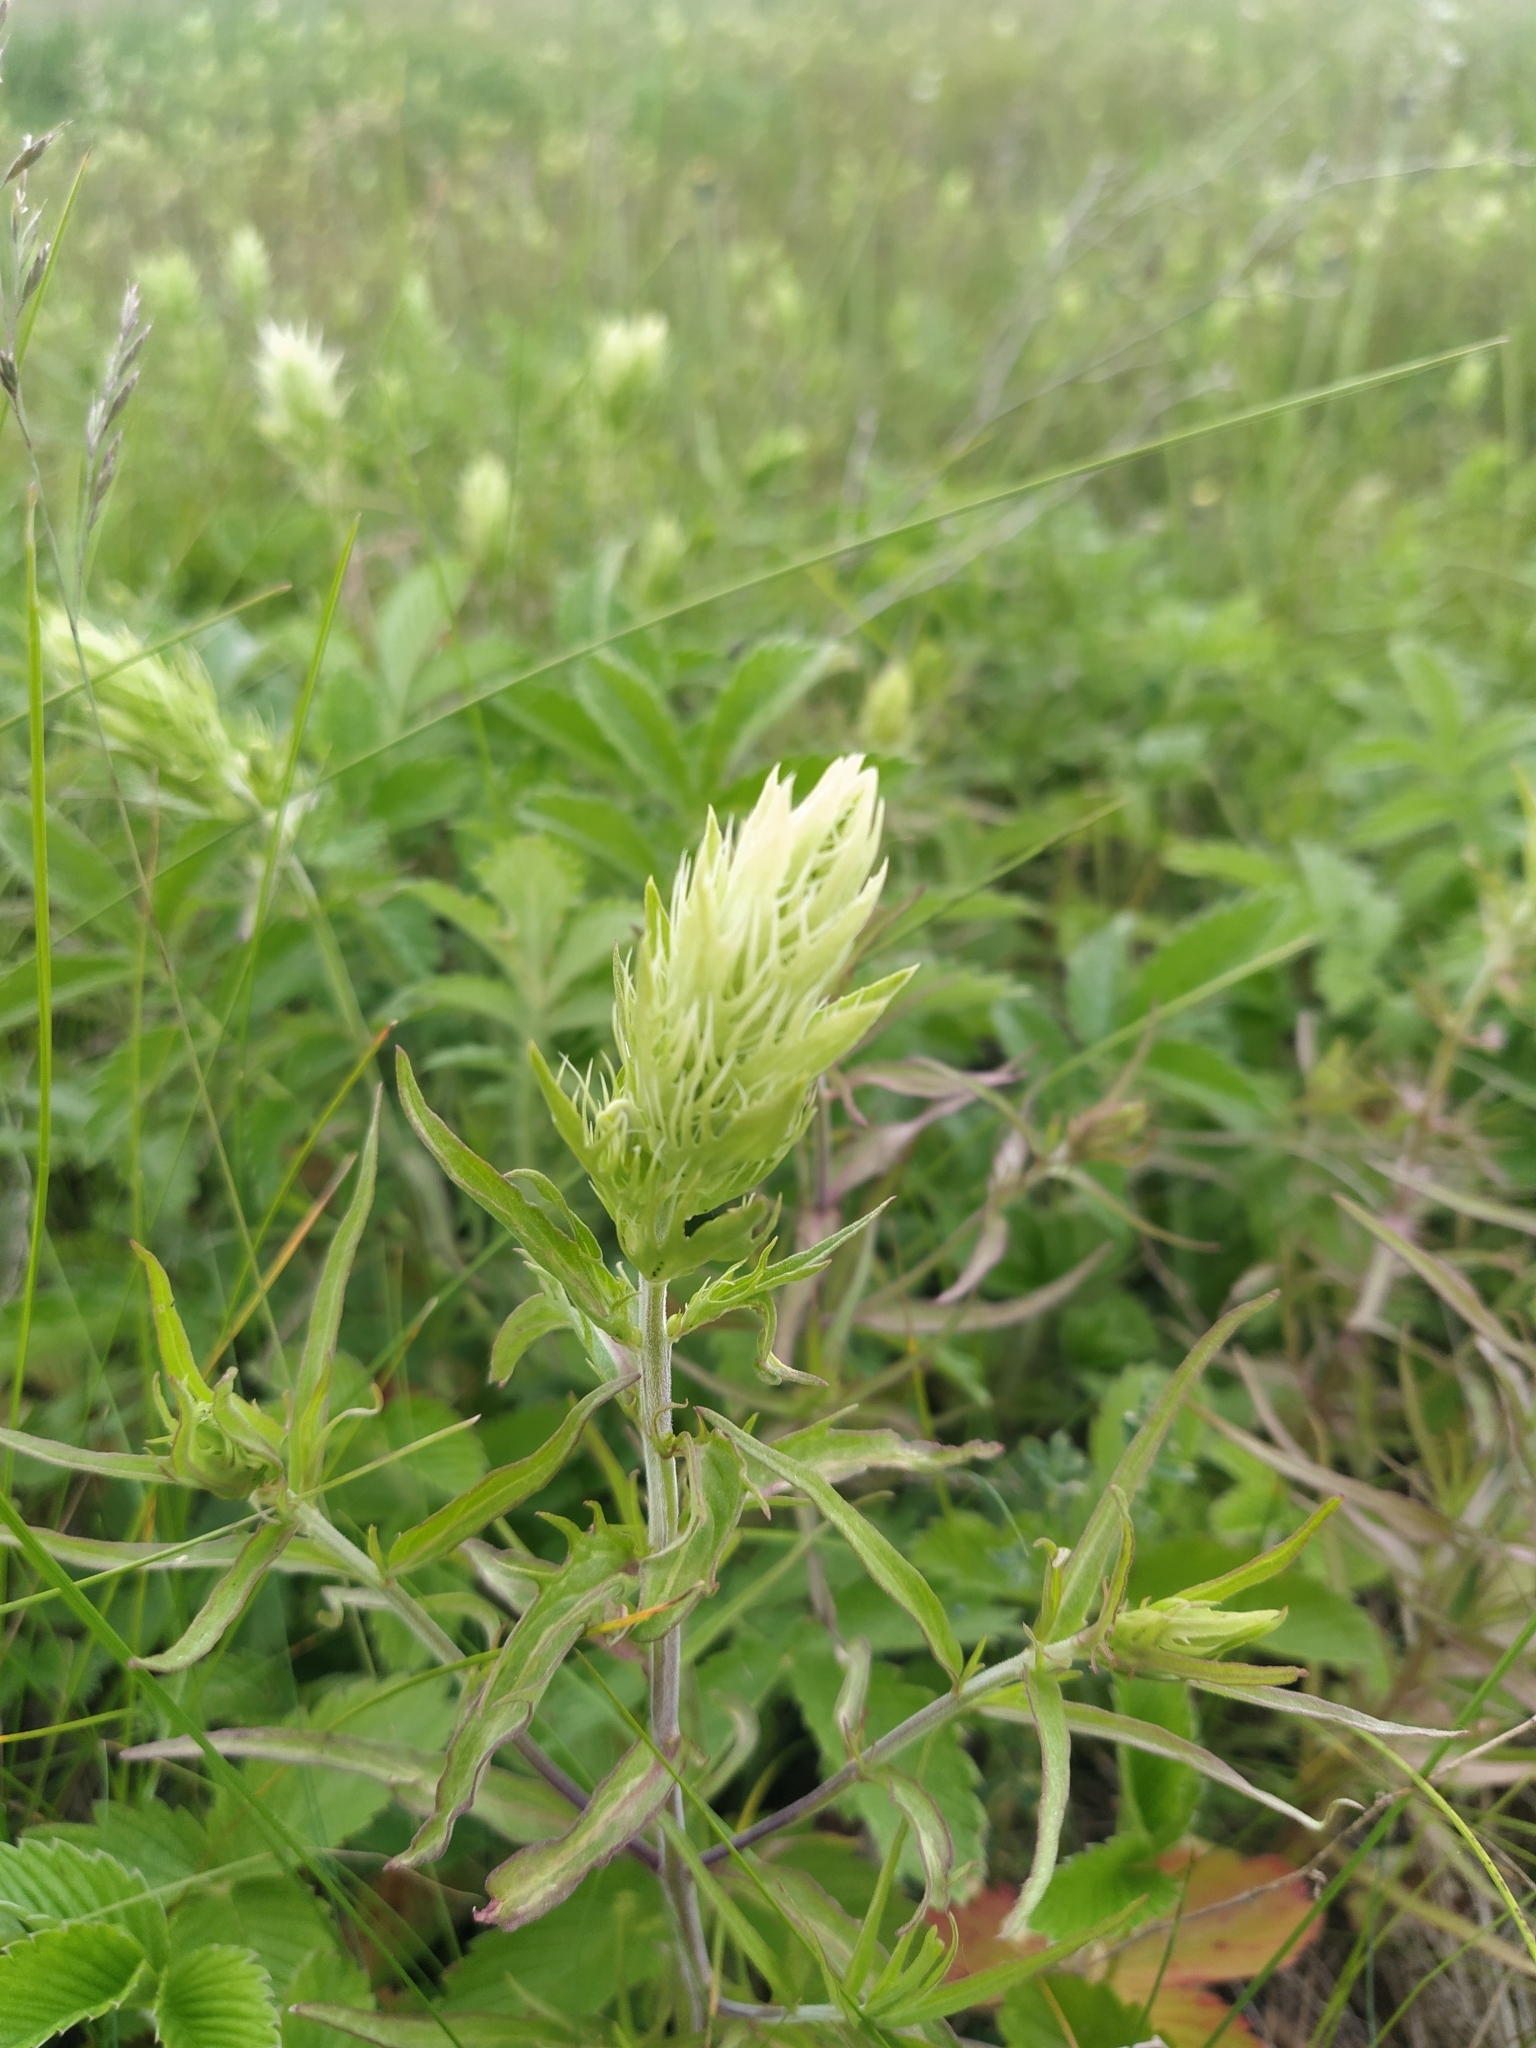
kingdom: Plantae
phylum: Tracheophyta
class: Magnoliopsida
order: Lamiales
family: Orobanchaceae
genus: Melampyrum
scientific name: Melampyrum arvense
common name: Field cow-wheat
